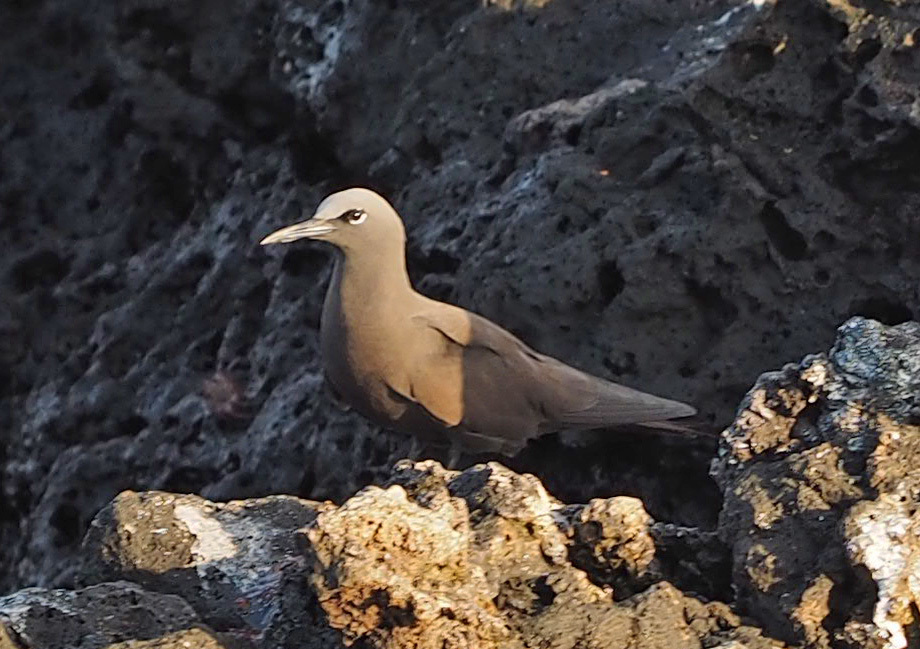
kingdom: Animalia
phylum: Chordata
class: Aves
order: Charadriiformes
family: Laridae
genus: Anous
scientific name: Anous stolidus
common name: Brown noddy
